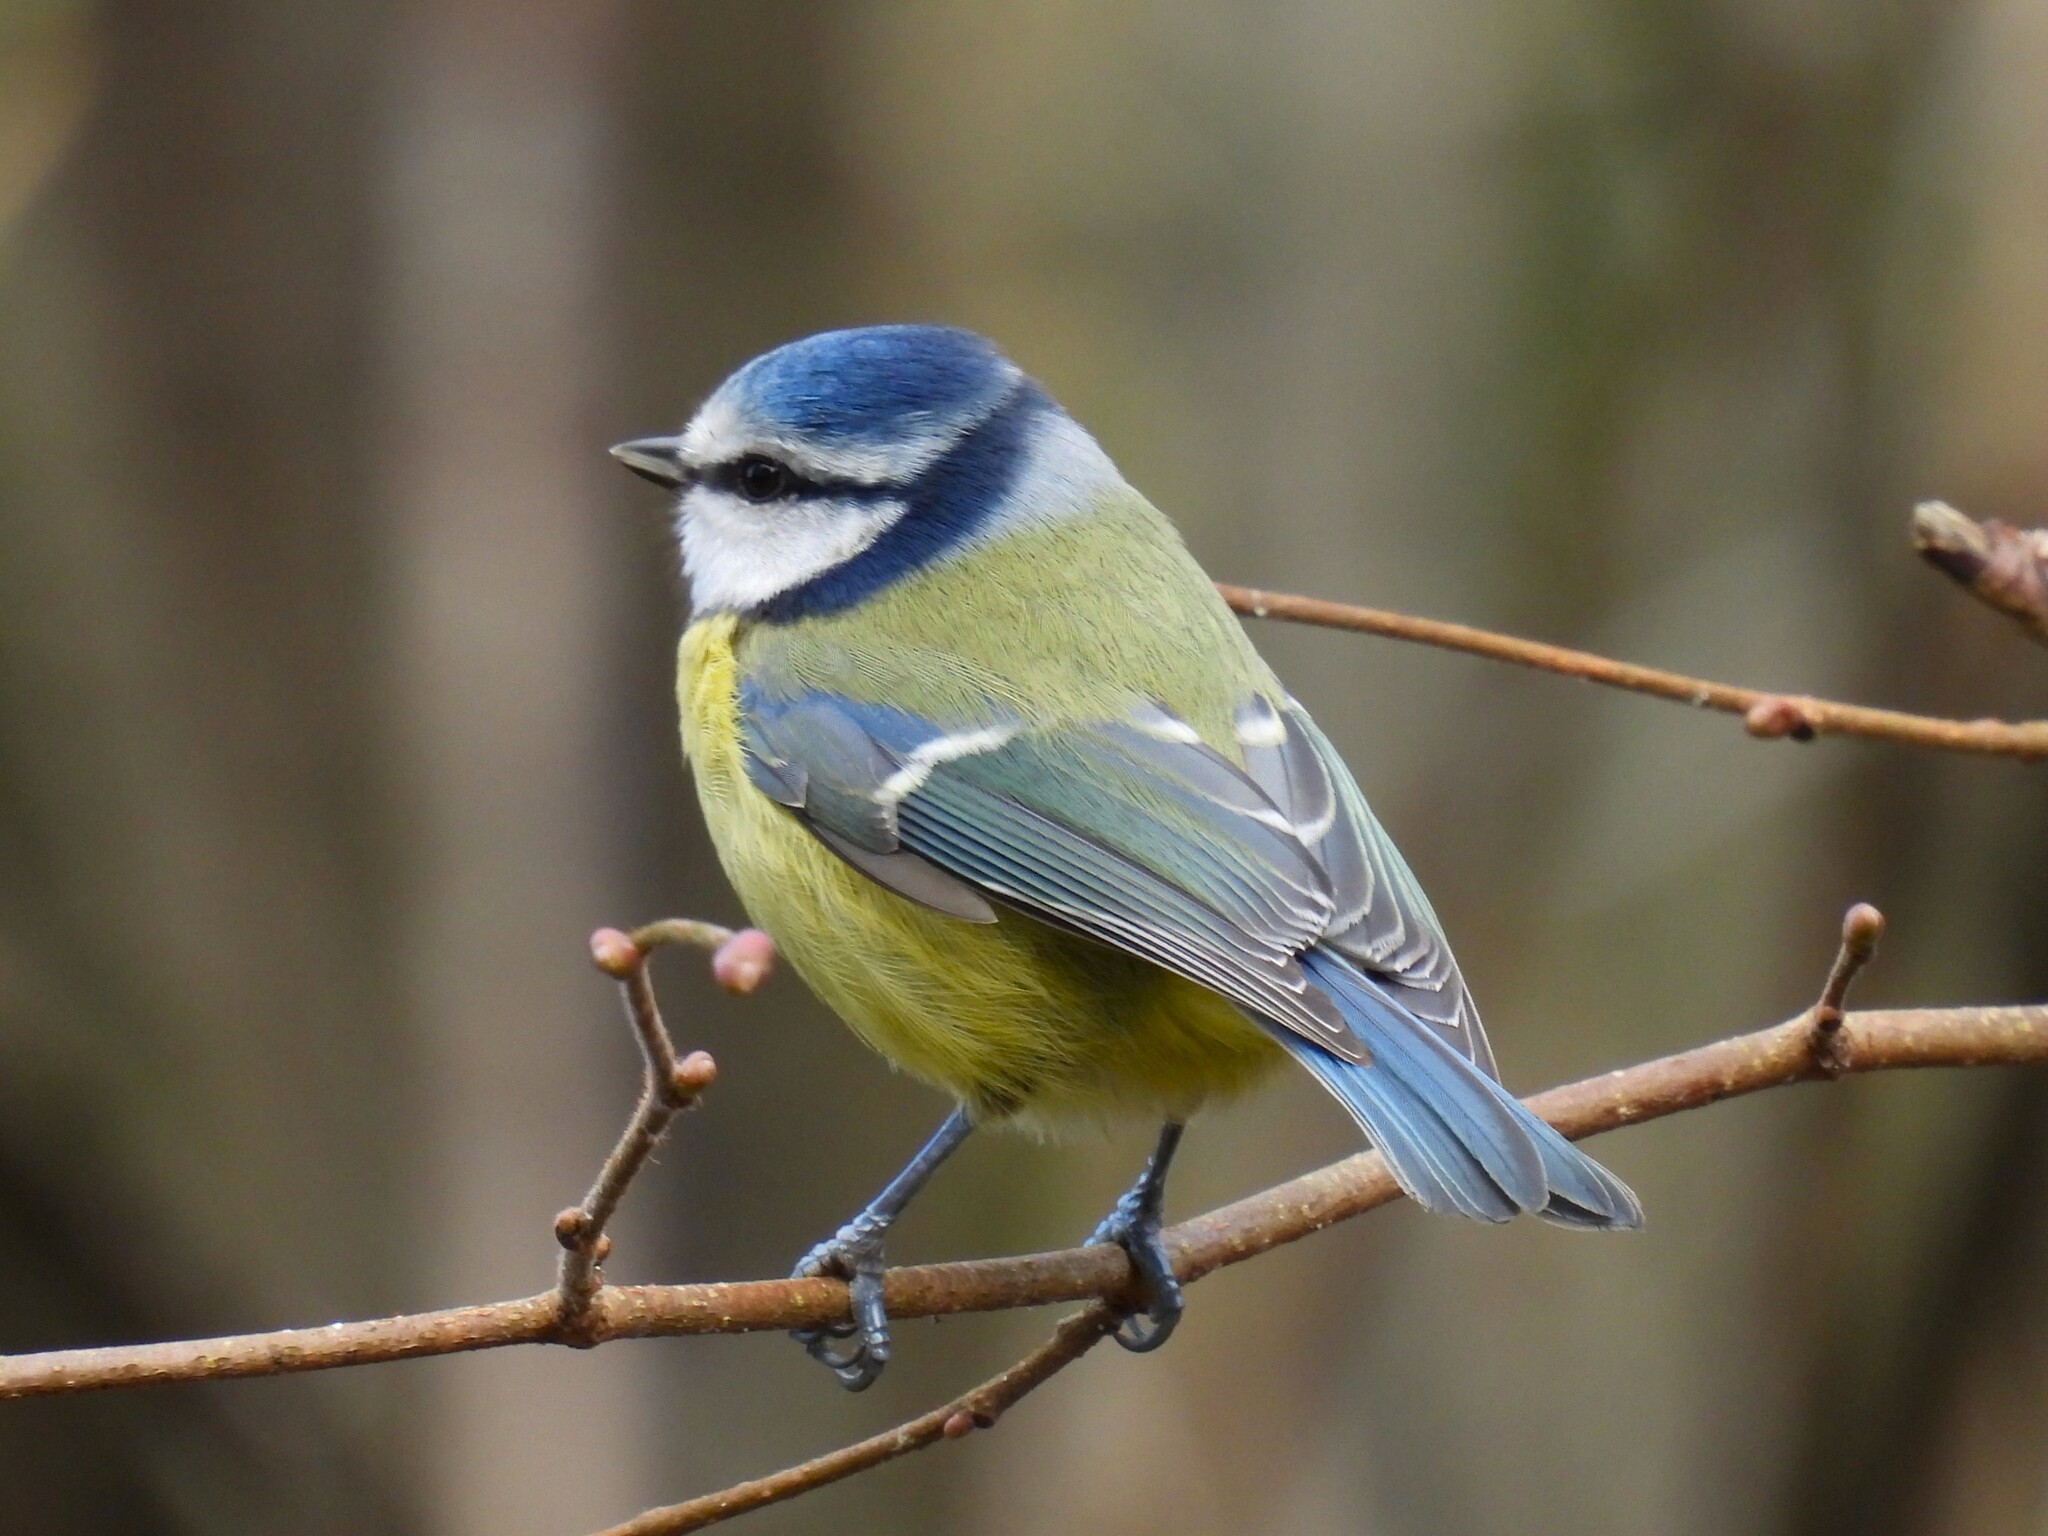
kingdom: Animalia
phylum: Chordata
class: Aves
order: Passeriformes
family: Paridae
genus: Cyanistes
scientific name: Cyanistes caeruleus
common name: Eurasian blue tit
